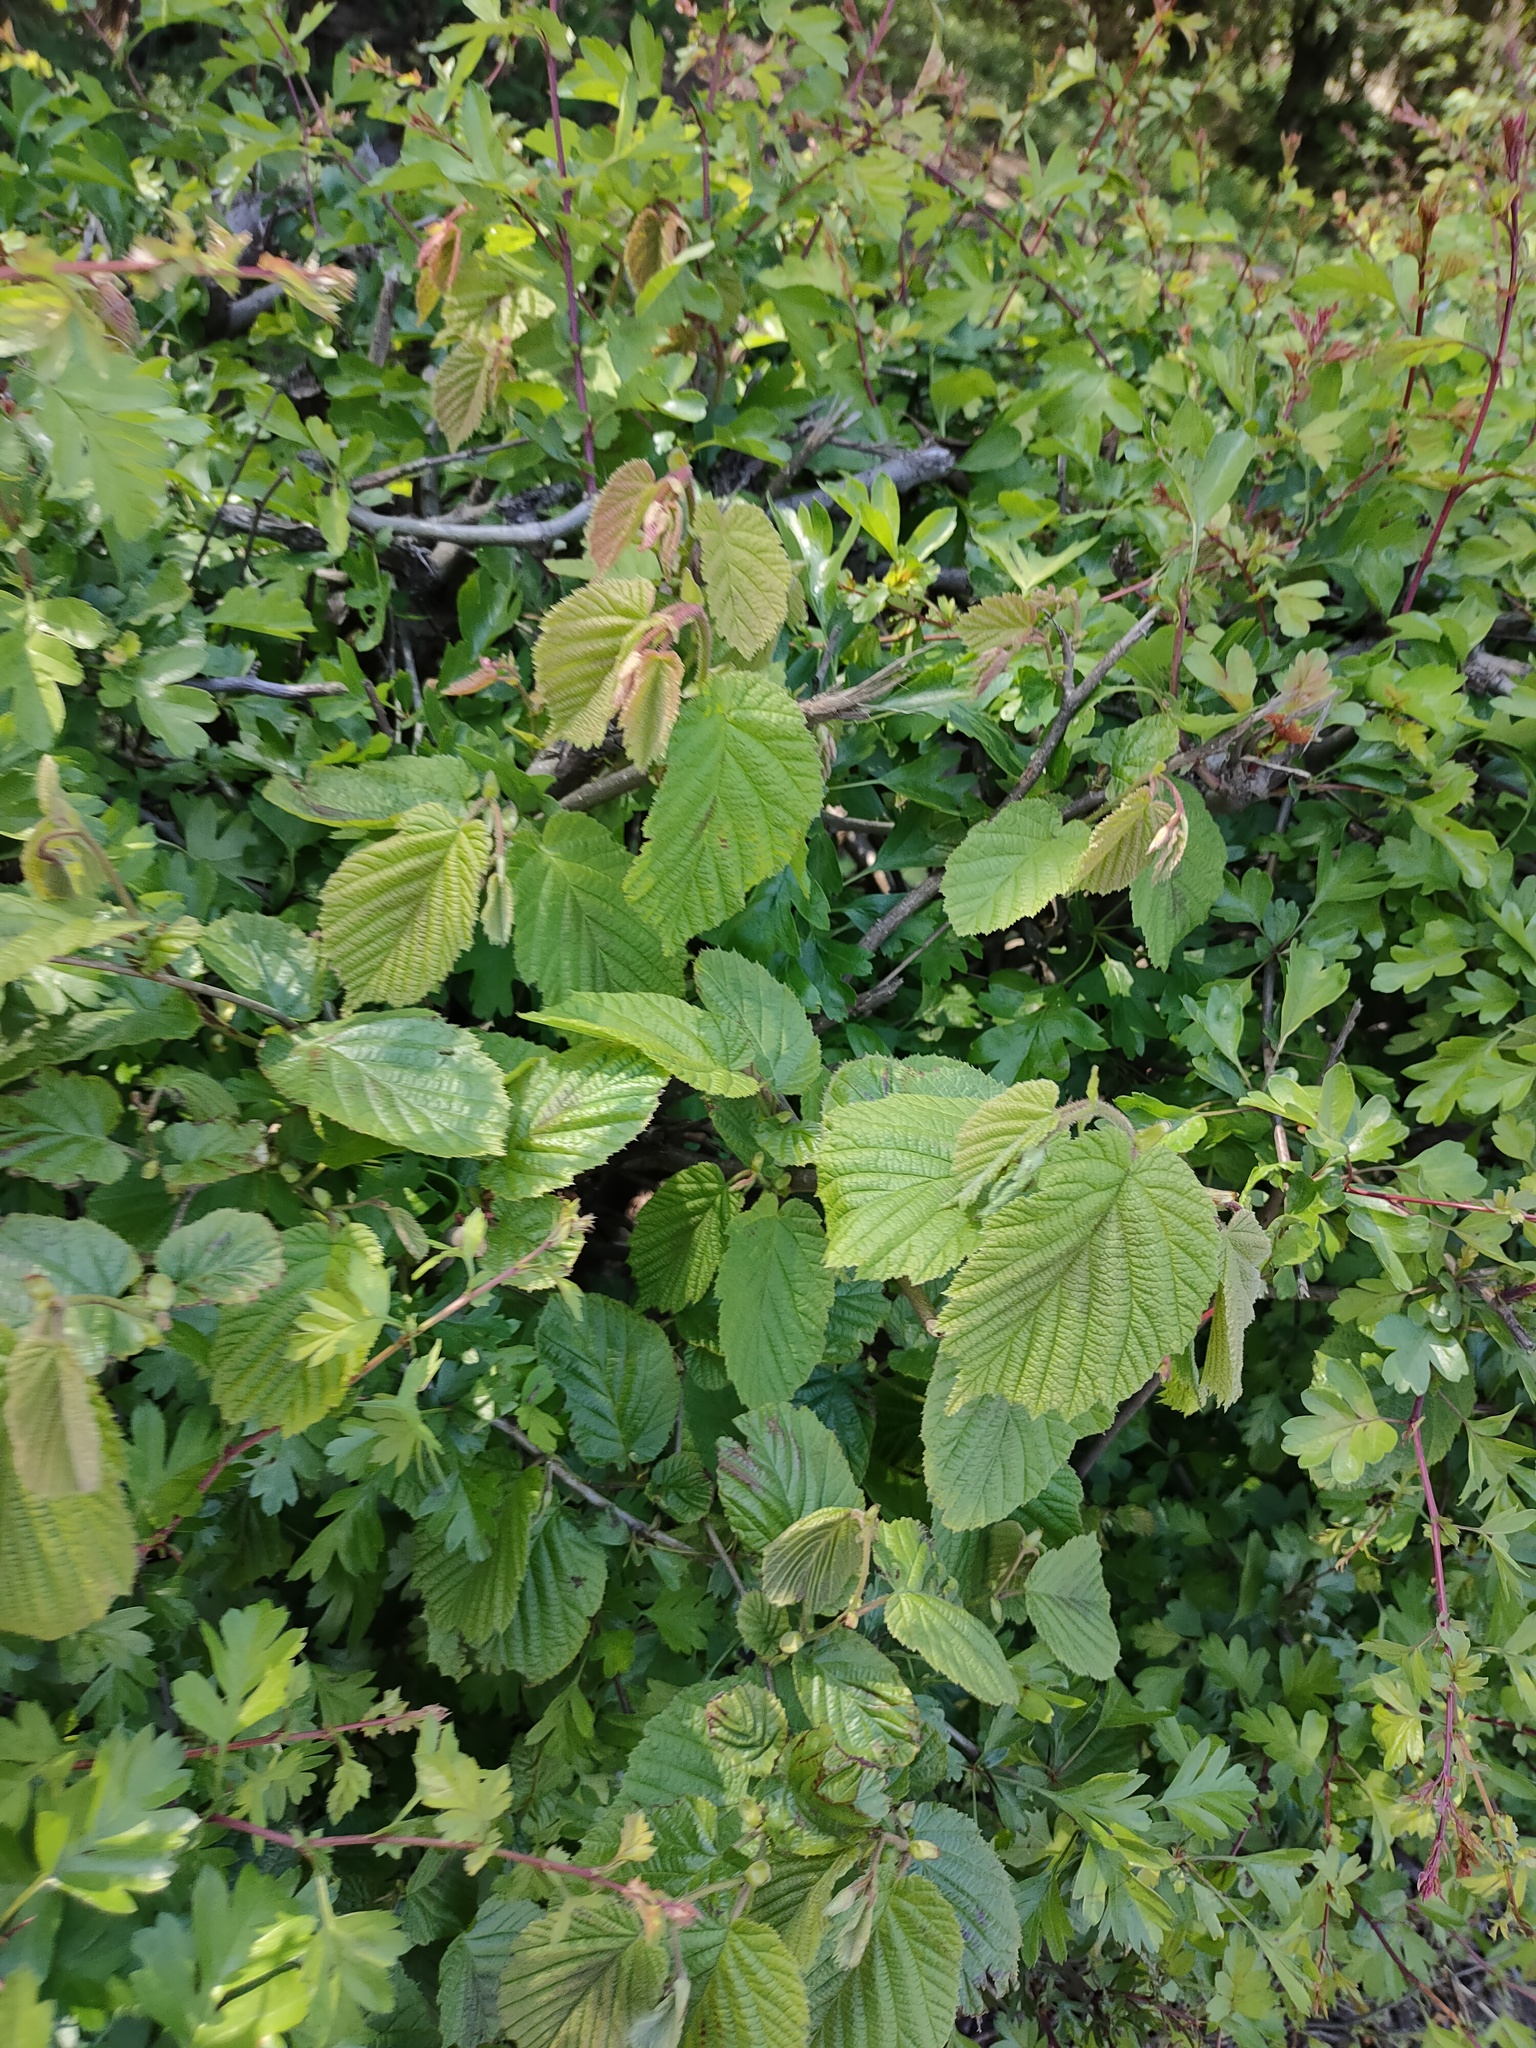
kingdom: Plantae
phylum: Tracheophyta
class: Magnoliopsida
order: Fagales
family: Betulaceae
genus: Corylus
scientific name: Corylus avellana
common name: European hazel
